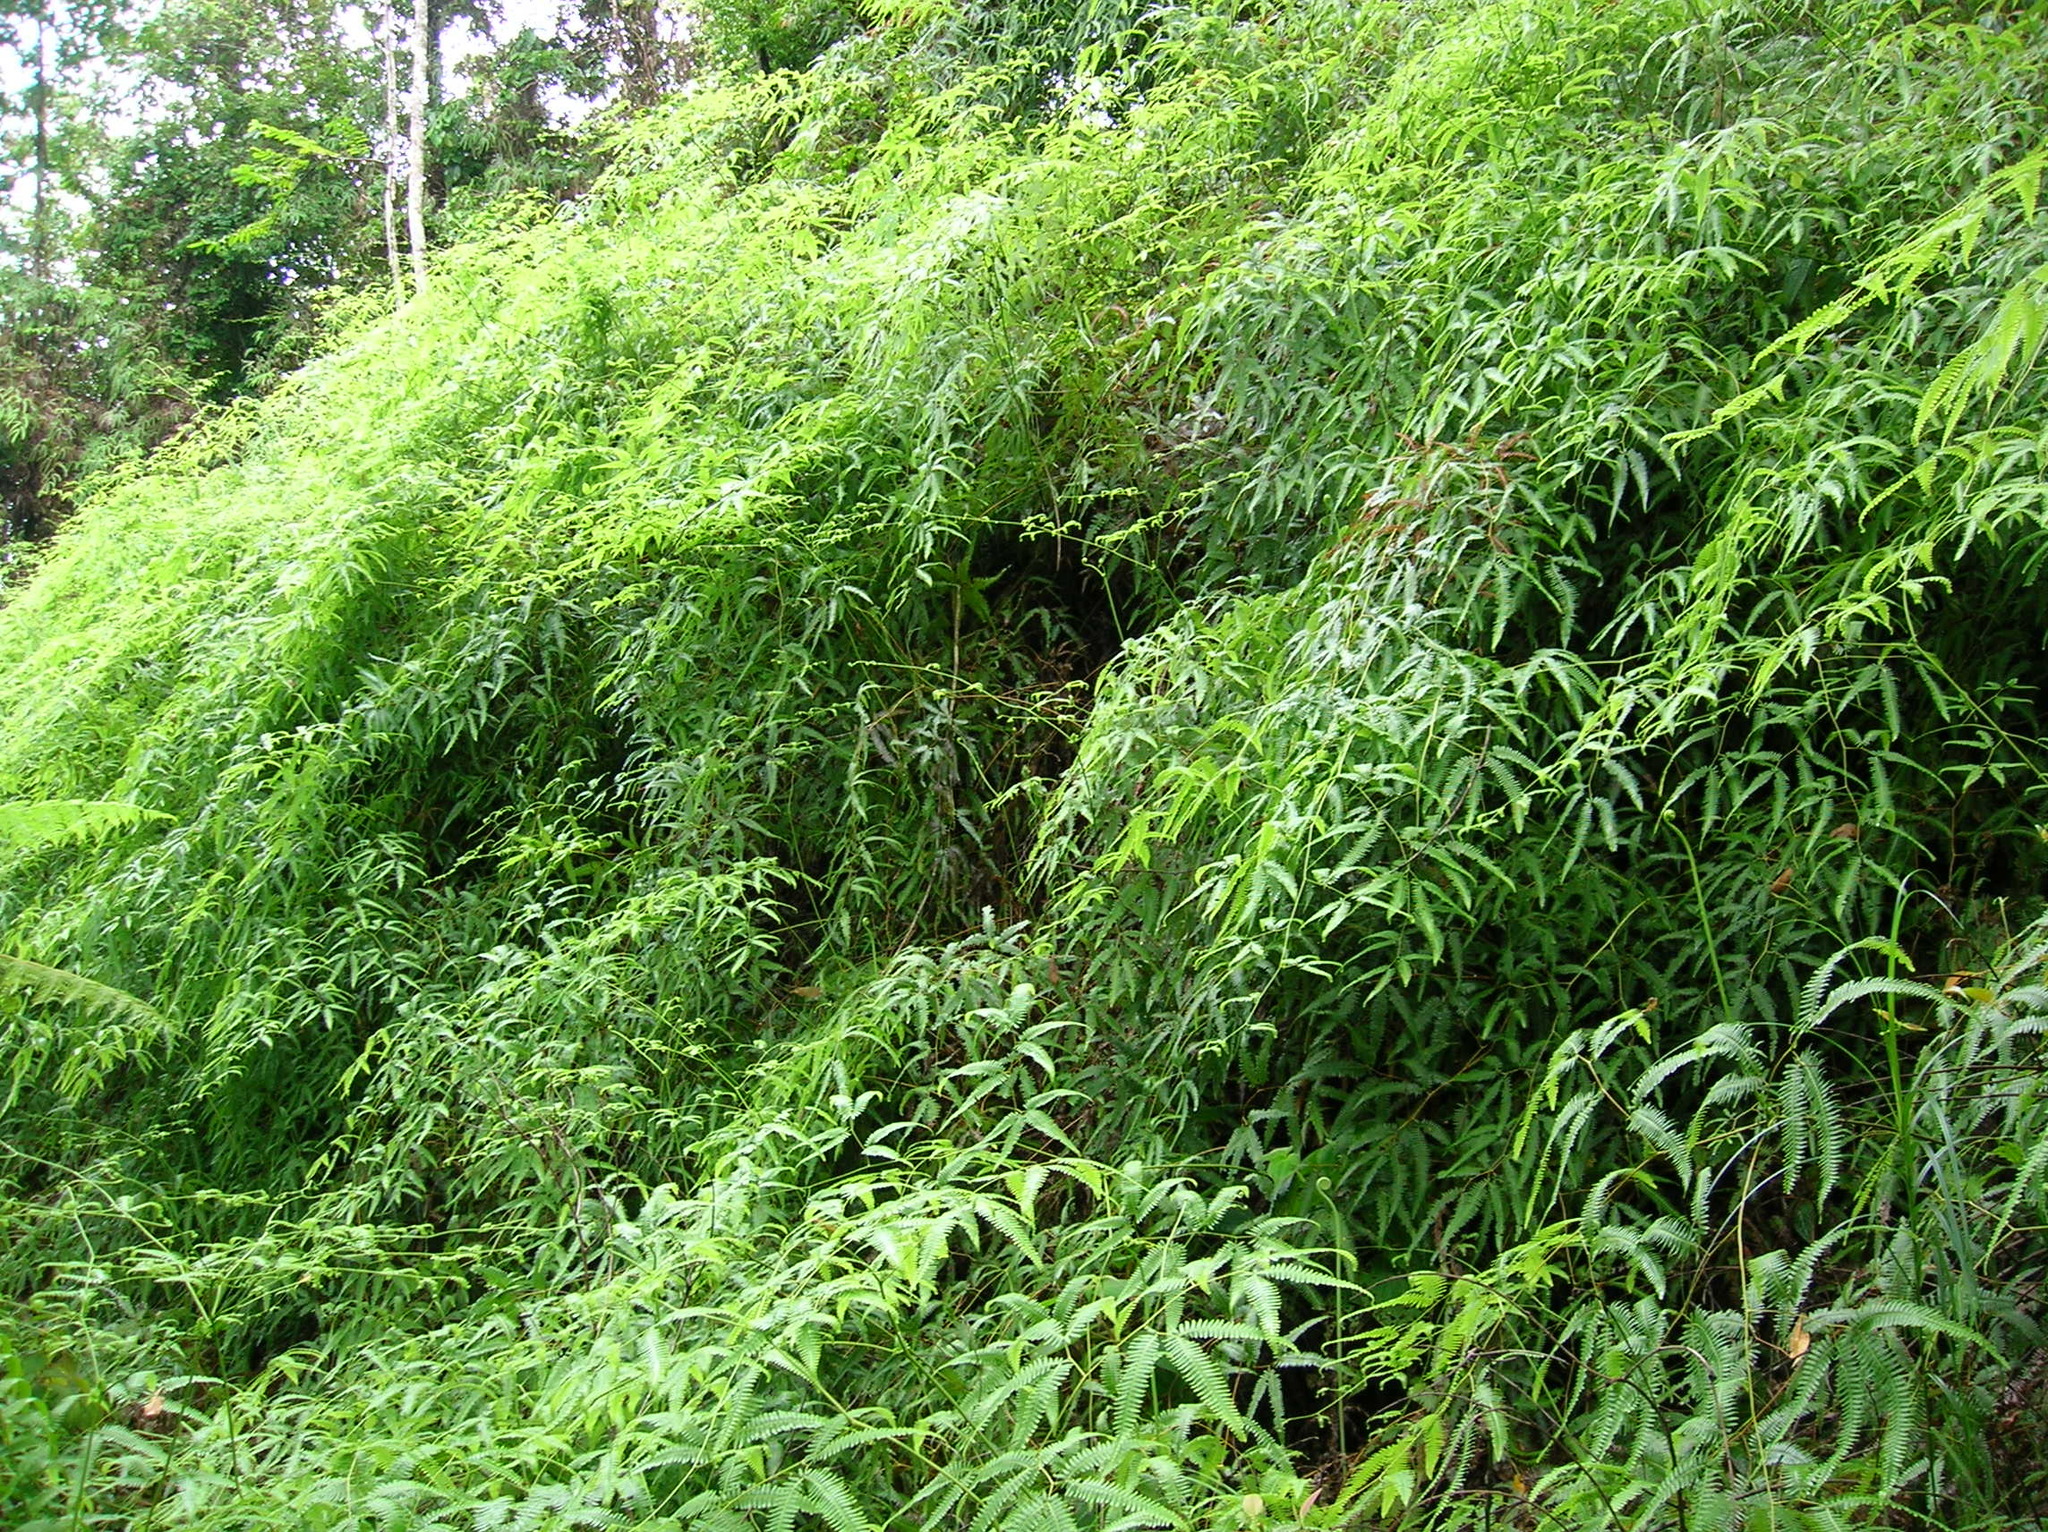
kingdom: Plantae
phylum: Tracheophyta
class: Polypodiopsida
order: Gleicheniales
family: Gleicheniaceae
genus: Gleichenella
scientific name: Gleichenella pectinata
